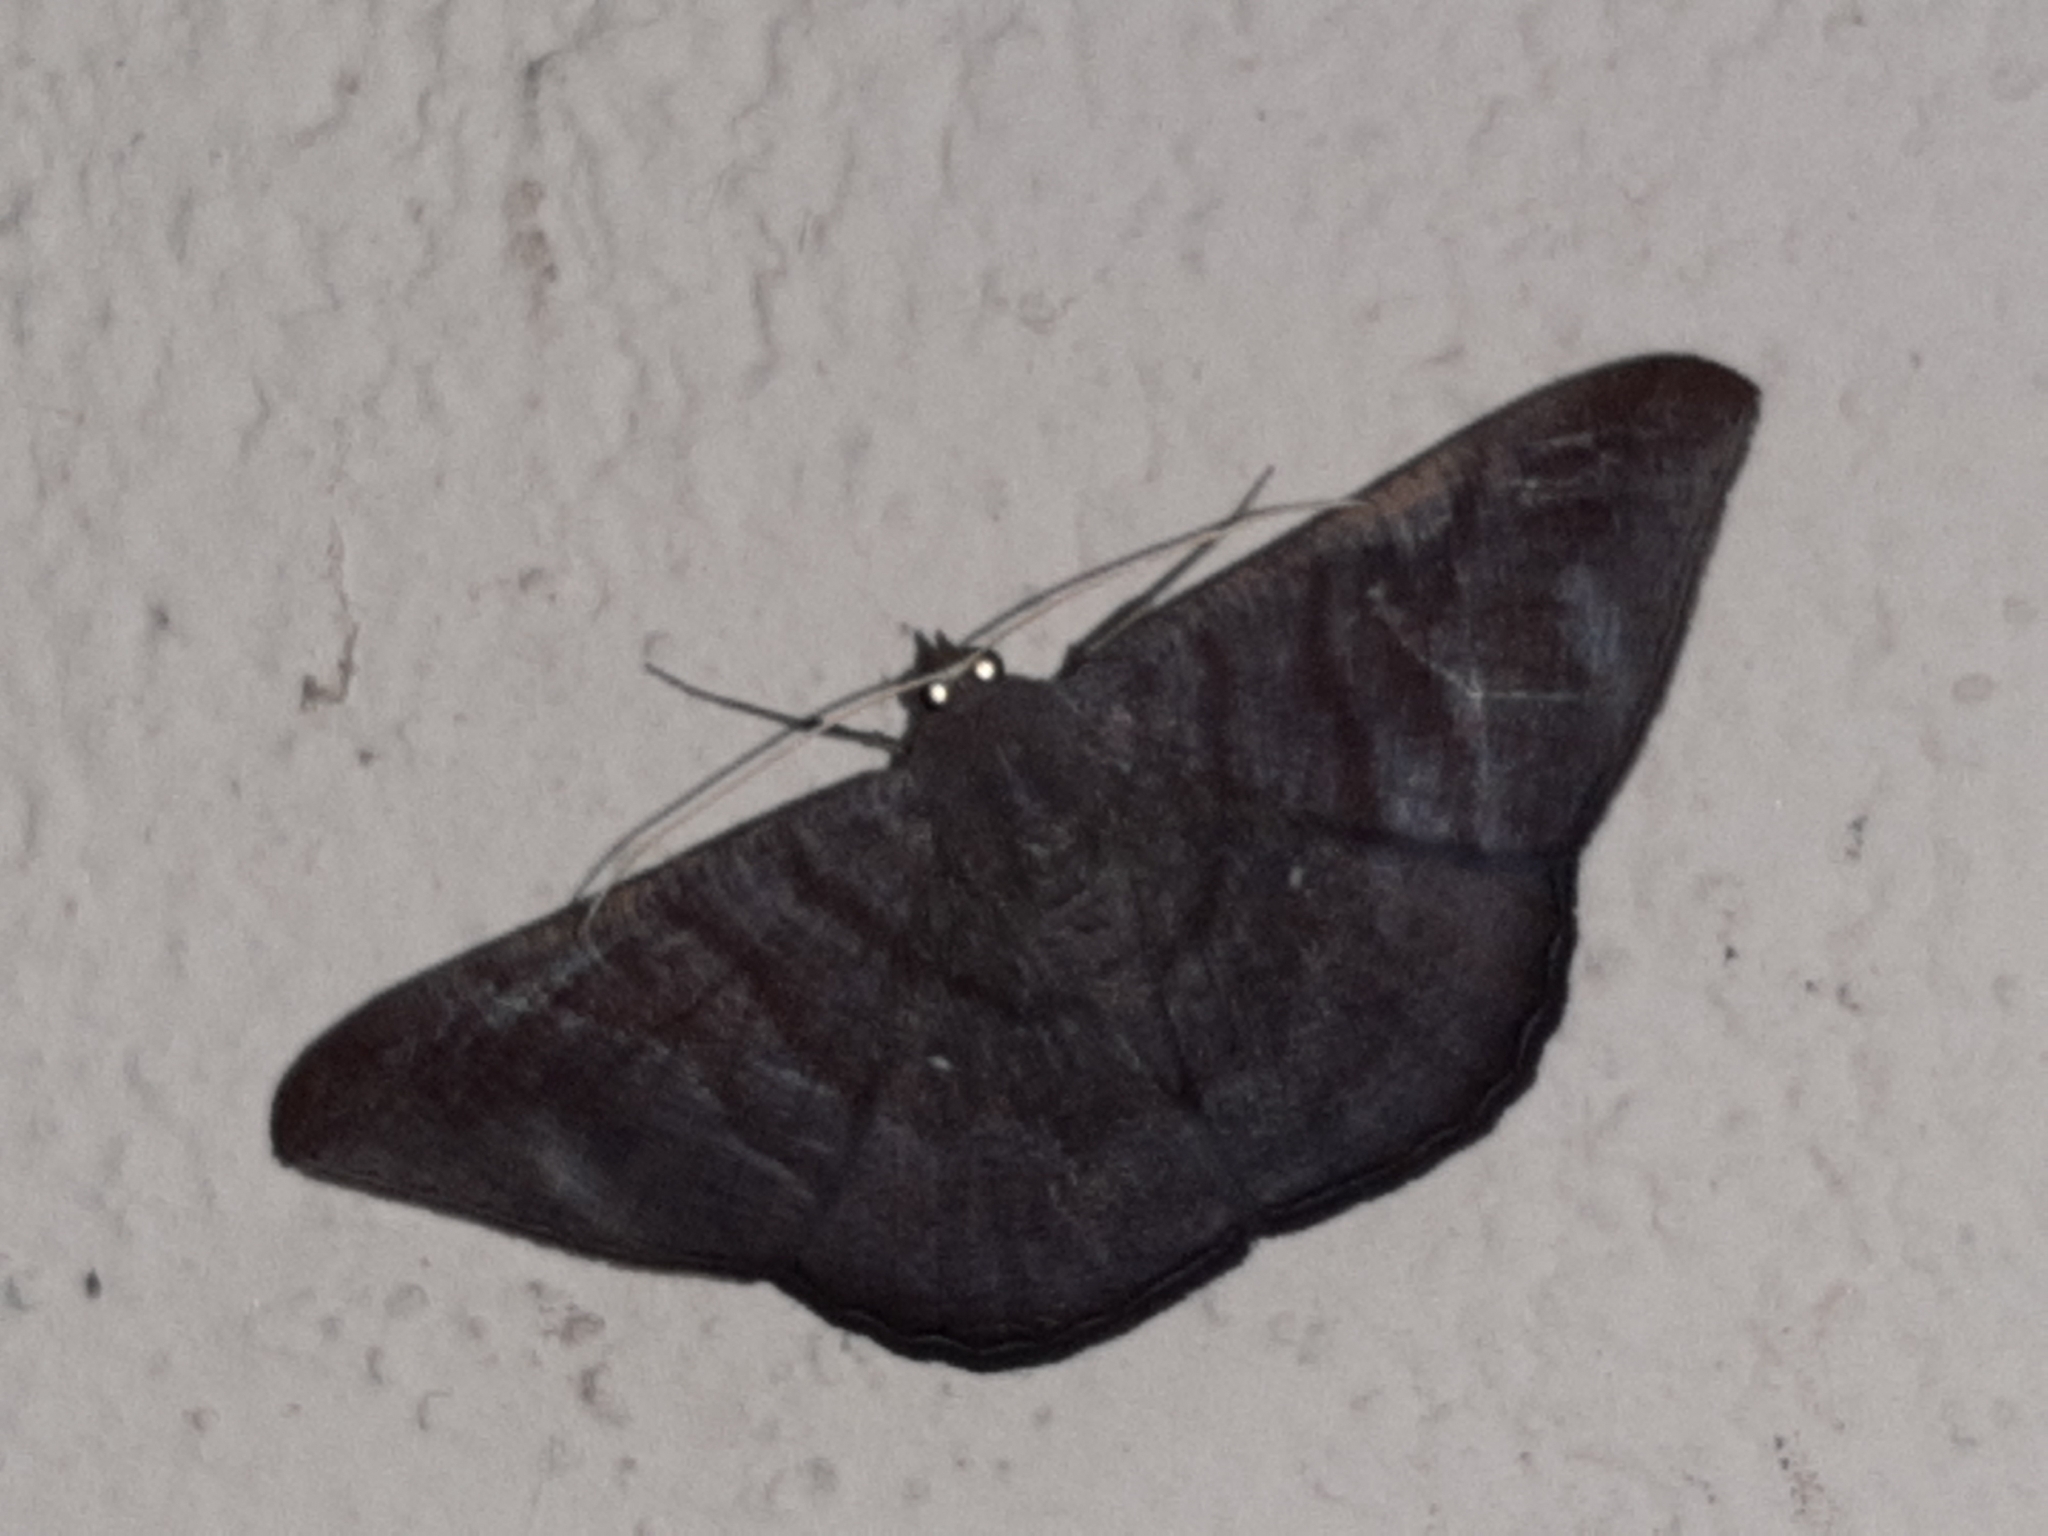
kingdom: Animalia
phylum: Arthropoda
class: Insecta
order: Lepidoptera
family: Geometridae
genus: Sphacelodes
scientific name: Sphacelodes vulneraria
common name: Looper moth
